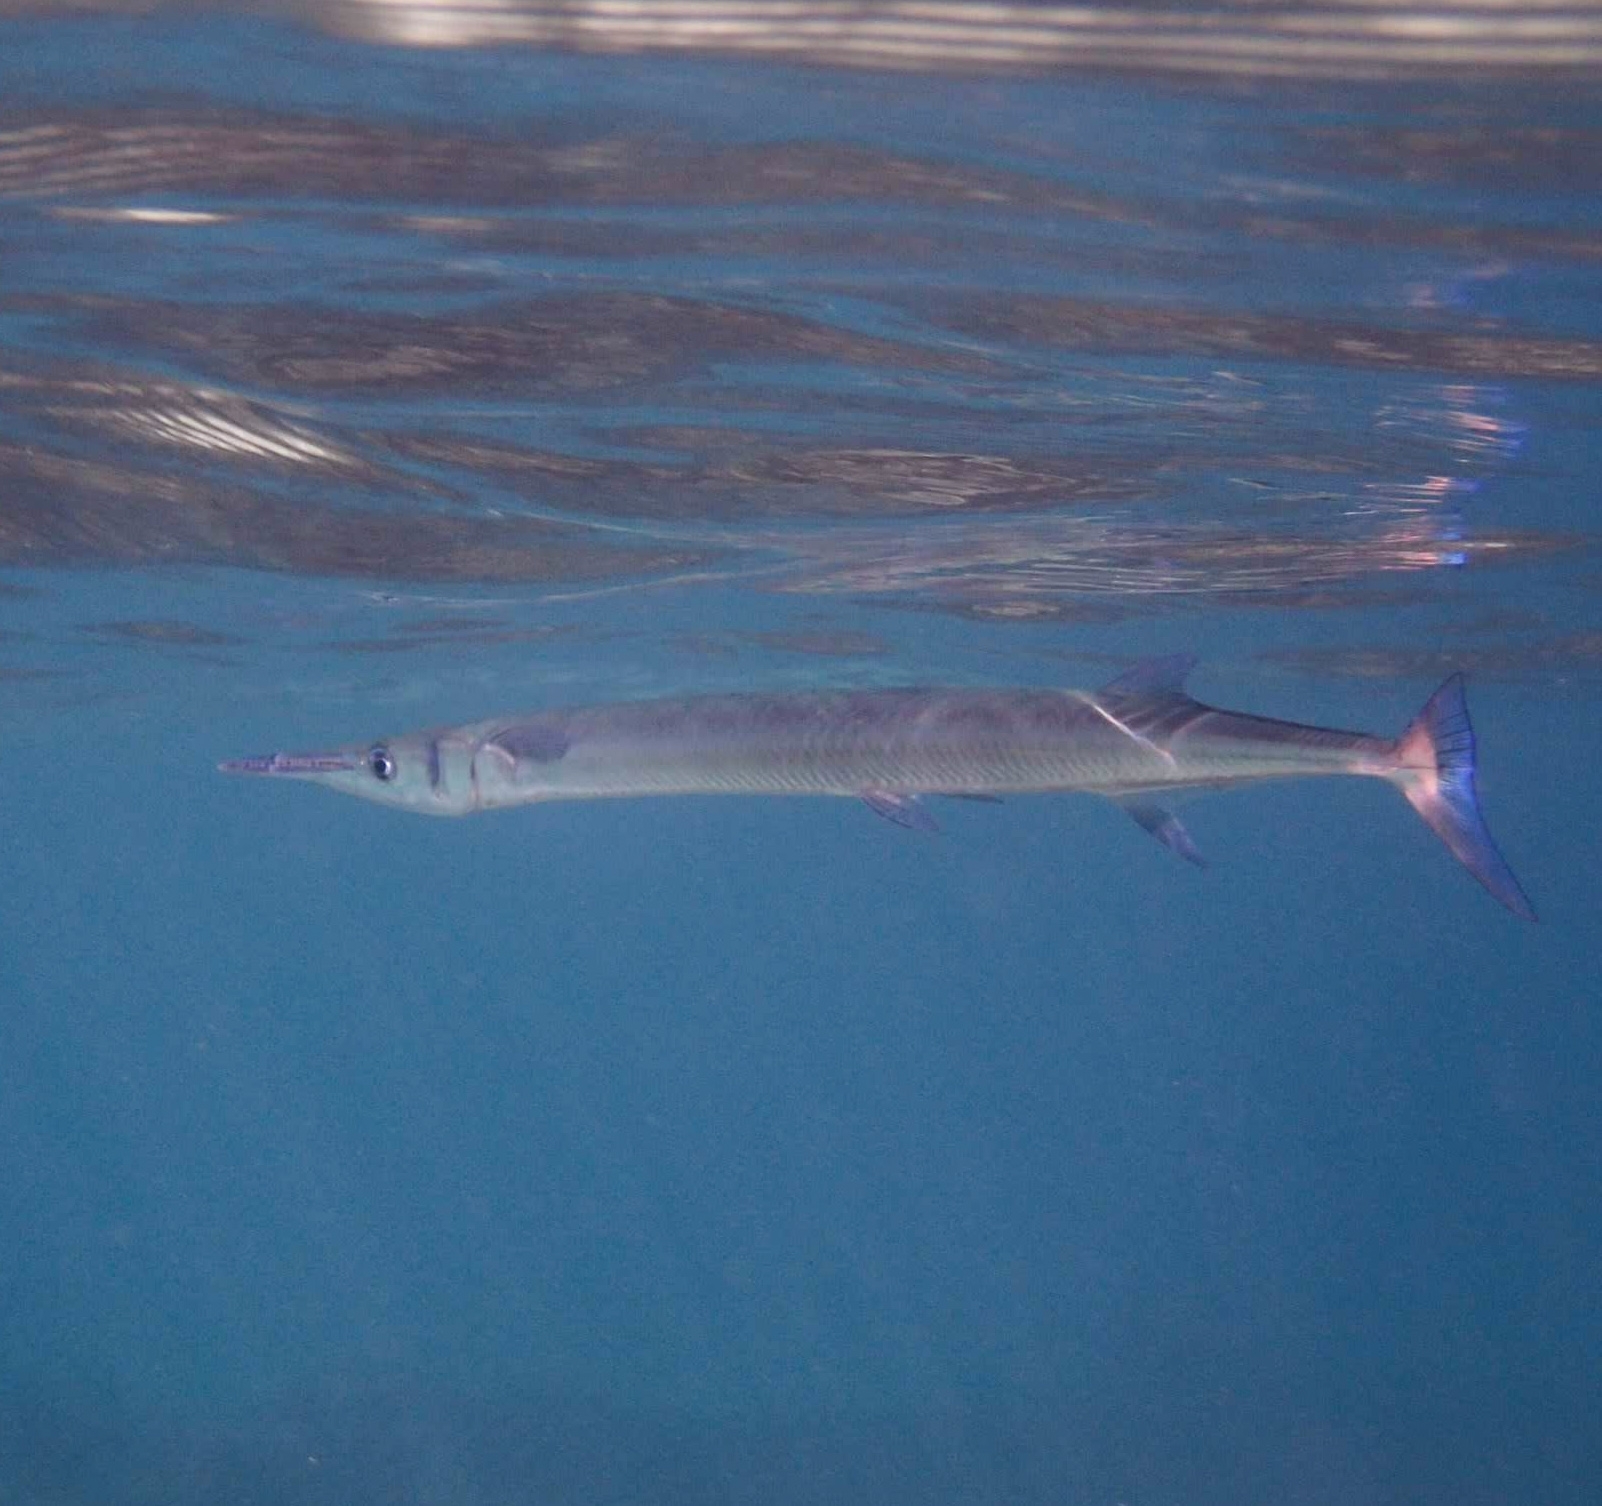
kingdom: Animalia
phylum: Chordata
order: Beloniformes
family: Belonidae
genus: Tylosurus
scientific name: Tylosurus crocodilus
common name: Houndfish
